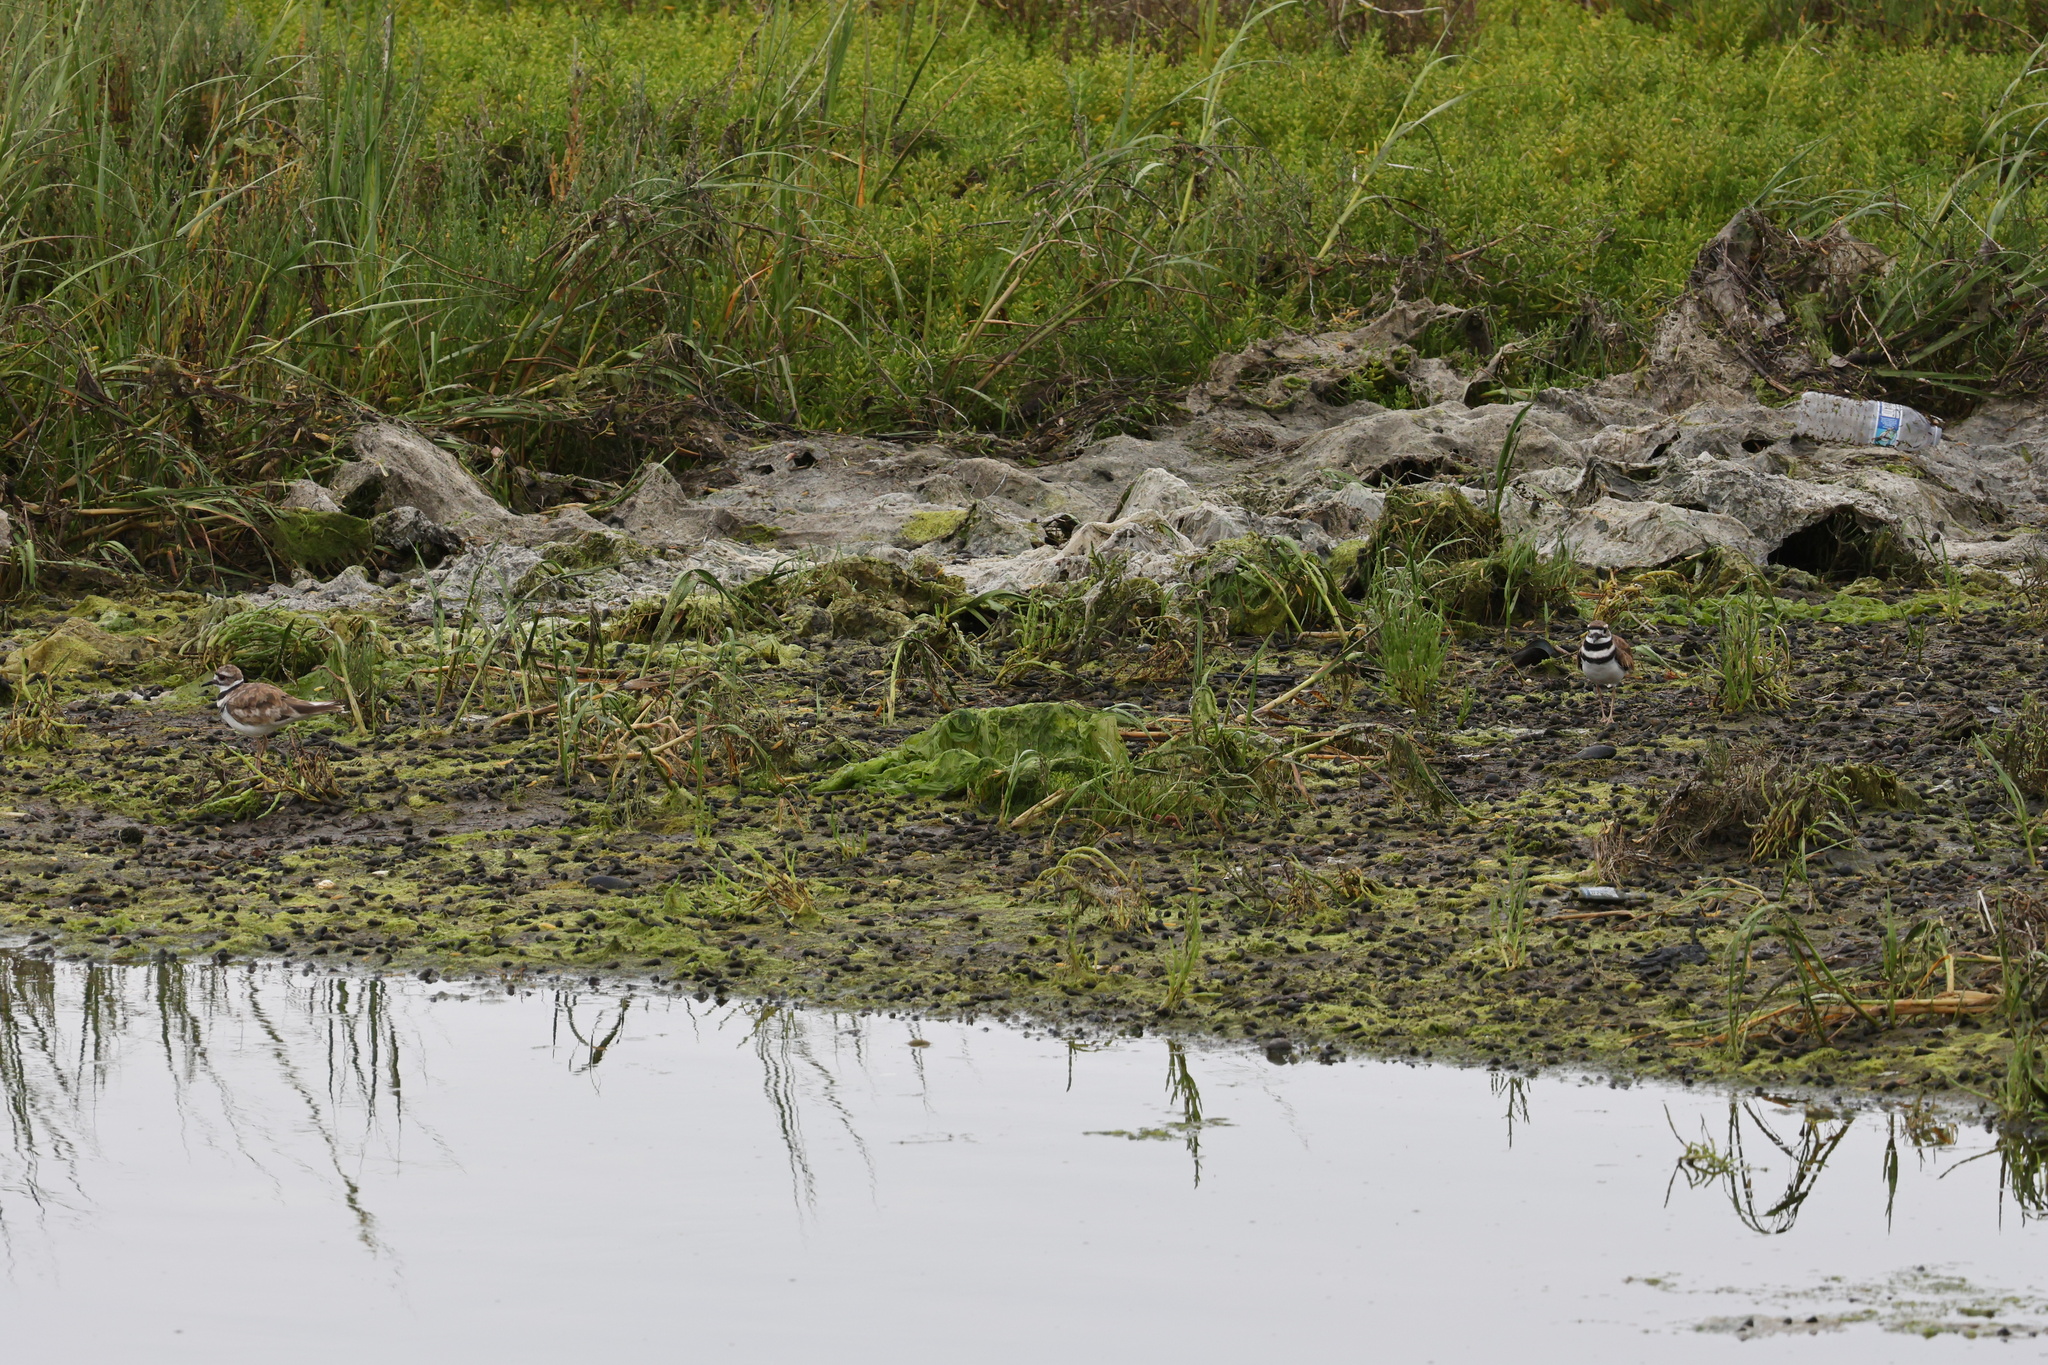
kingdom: Animalia
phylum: Chordata
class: Aves
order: Charadriiformes
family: Charadriidae
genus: Charadrius
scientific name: Charadrius vociferus
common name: Killdeer
